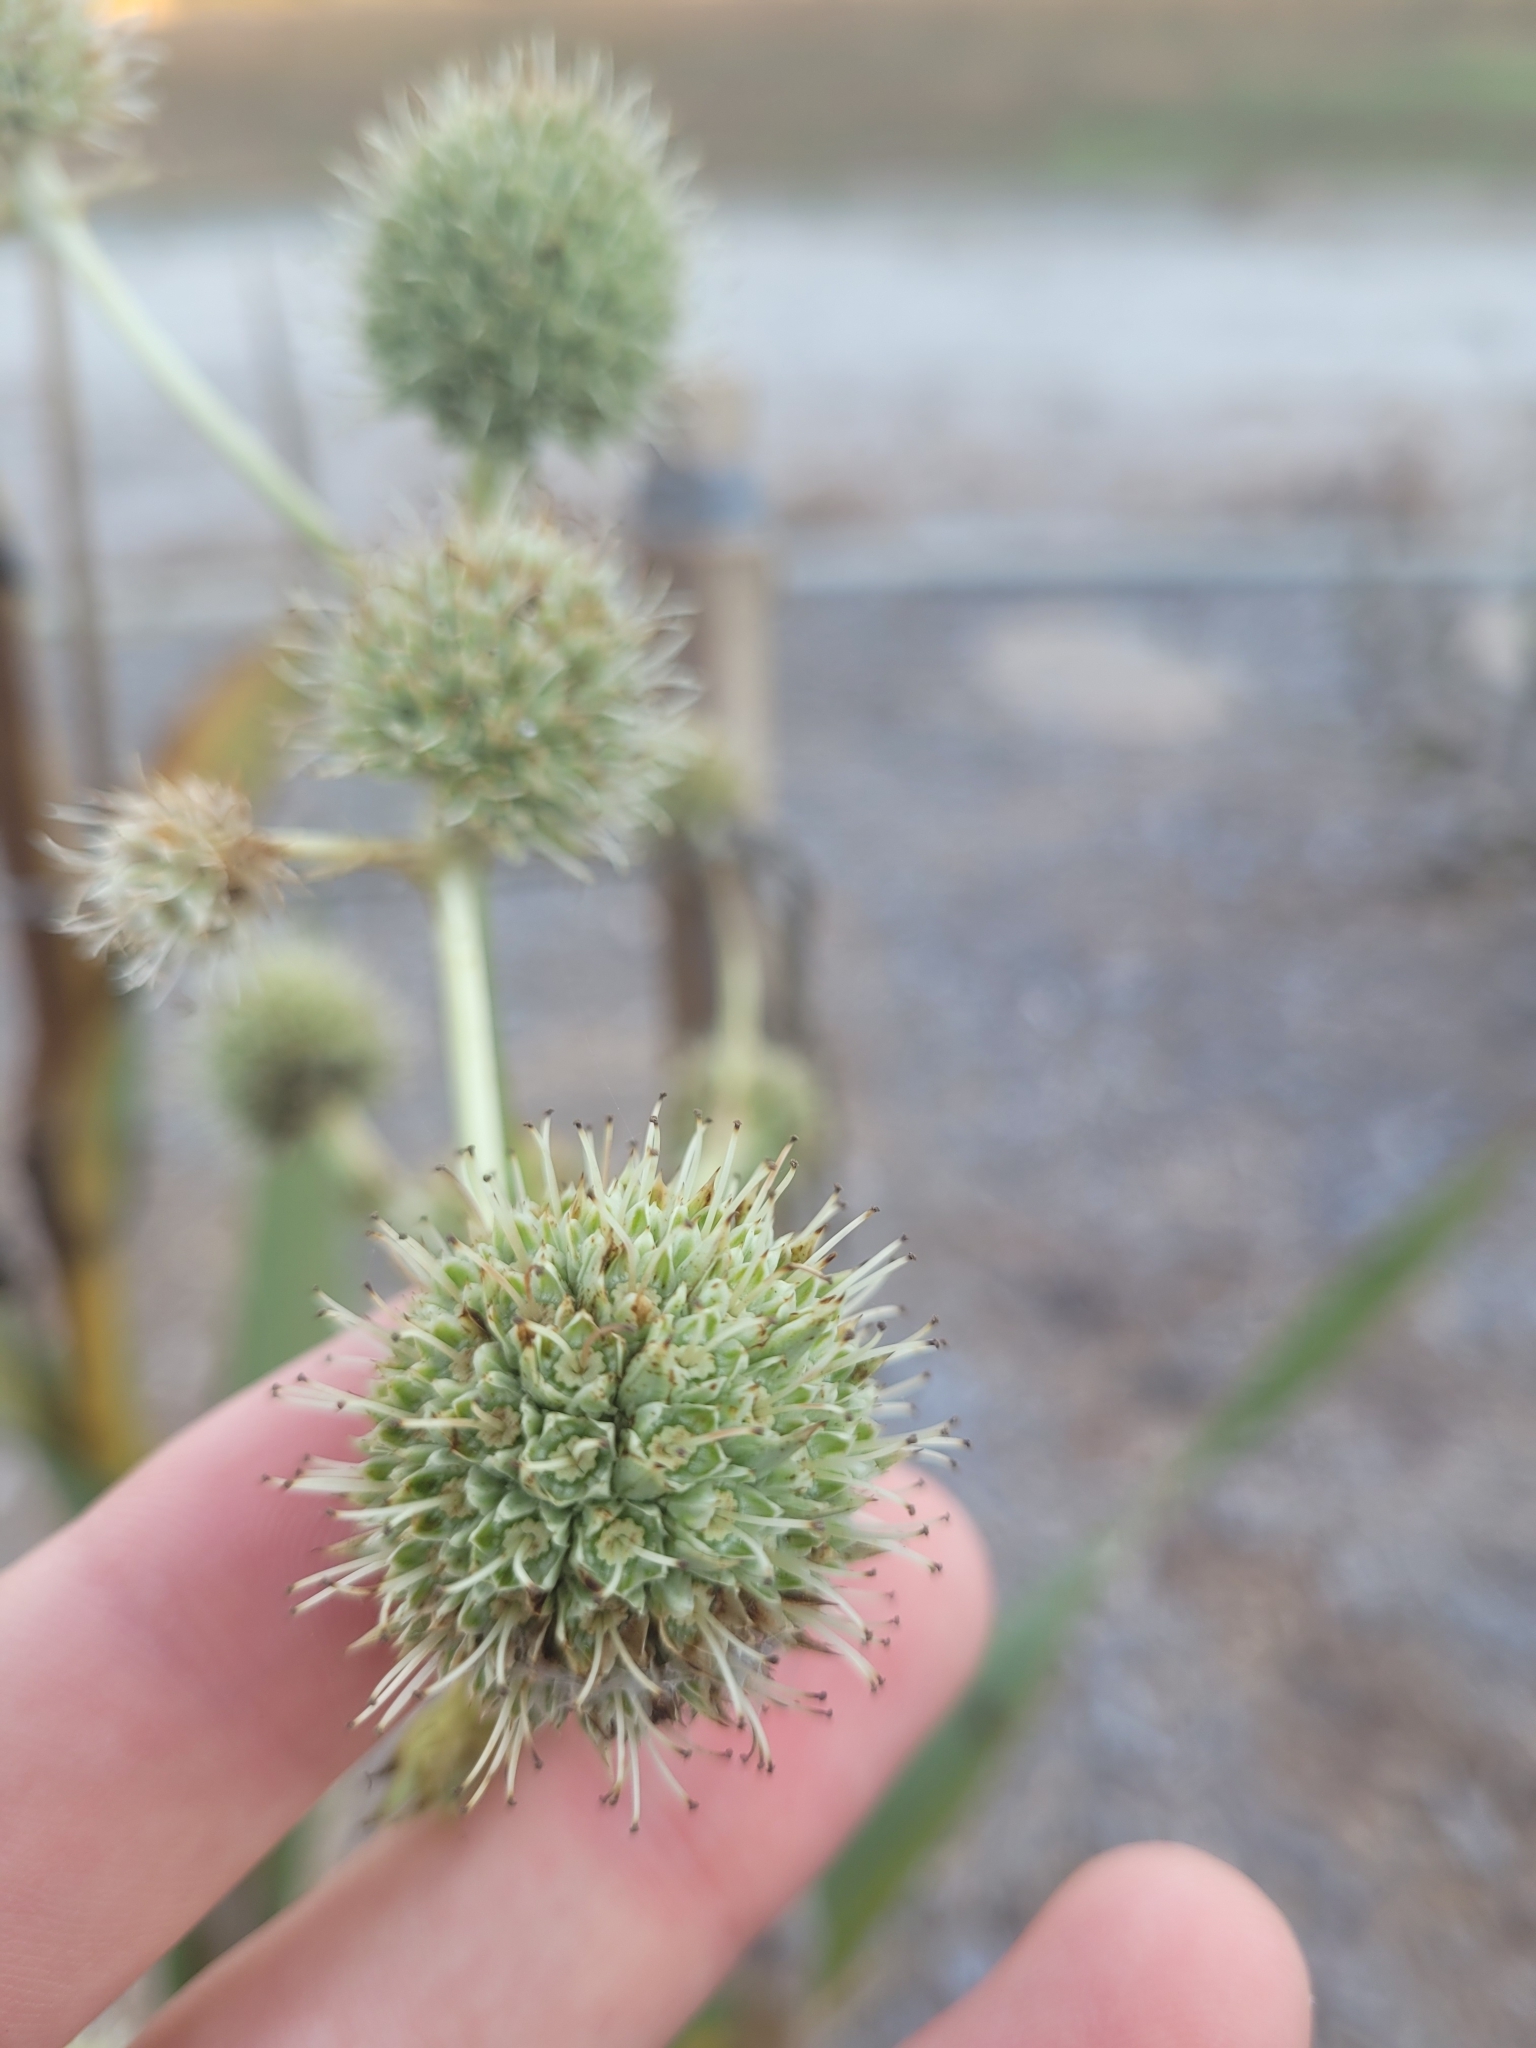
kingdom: Plantae
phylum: Tracheophyta
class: Magnoliopsida
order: Apiales
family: Apiaceae
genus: Eryngium
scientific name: Eryngium yuccifolium
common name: Button eryngo
